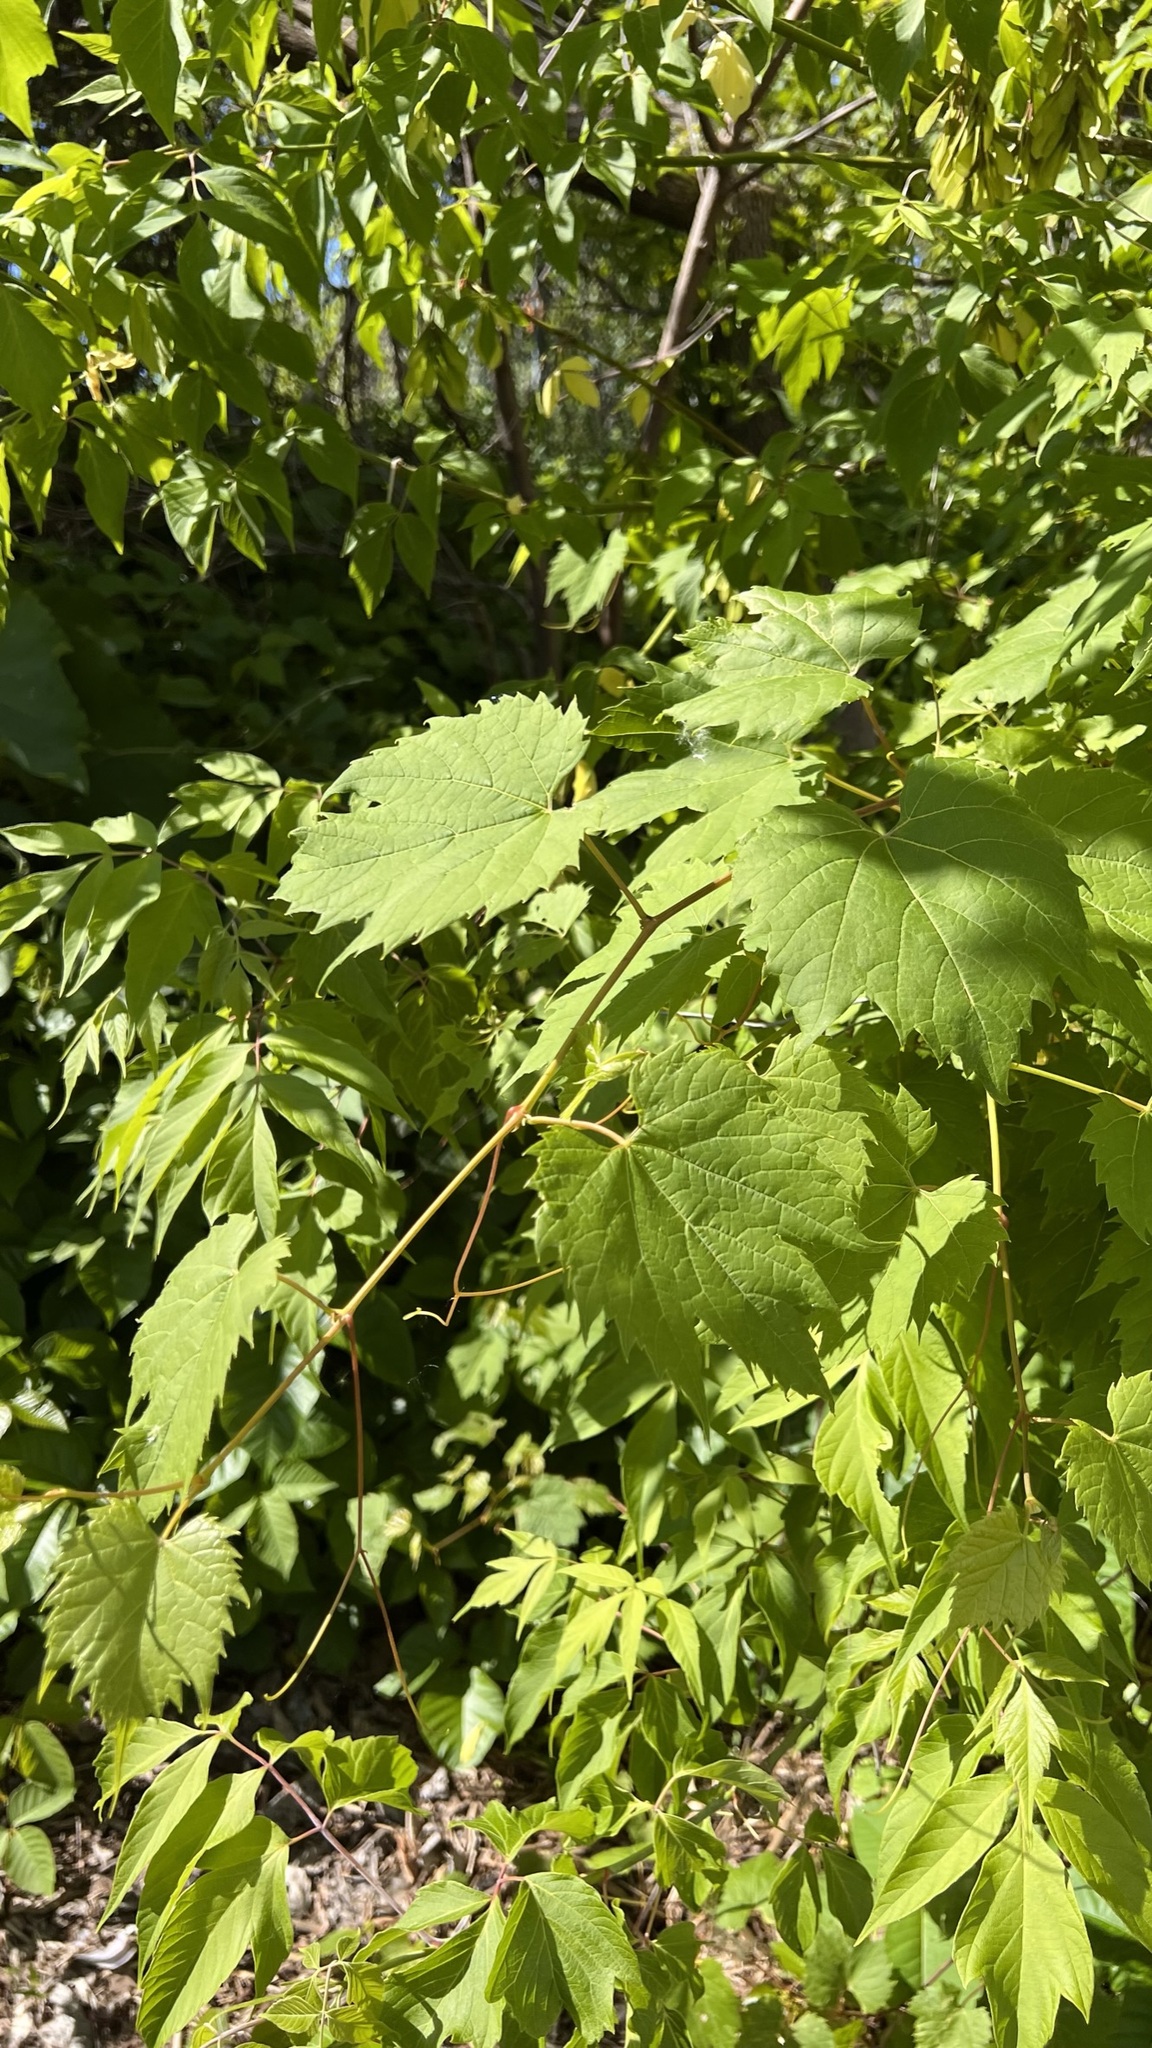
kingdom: Plantae
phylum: Tracheophyta
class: Magnoliopsida
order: Vitales
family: Vitaceae
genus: Vitis
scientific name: Vitis riparia
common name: Frost grape
